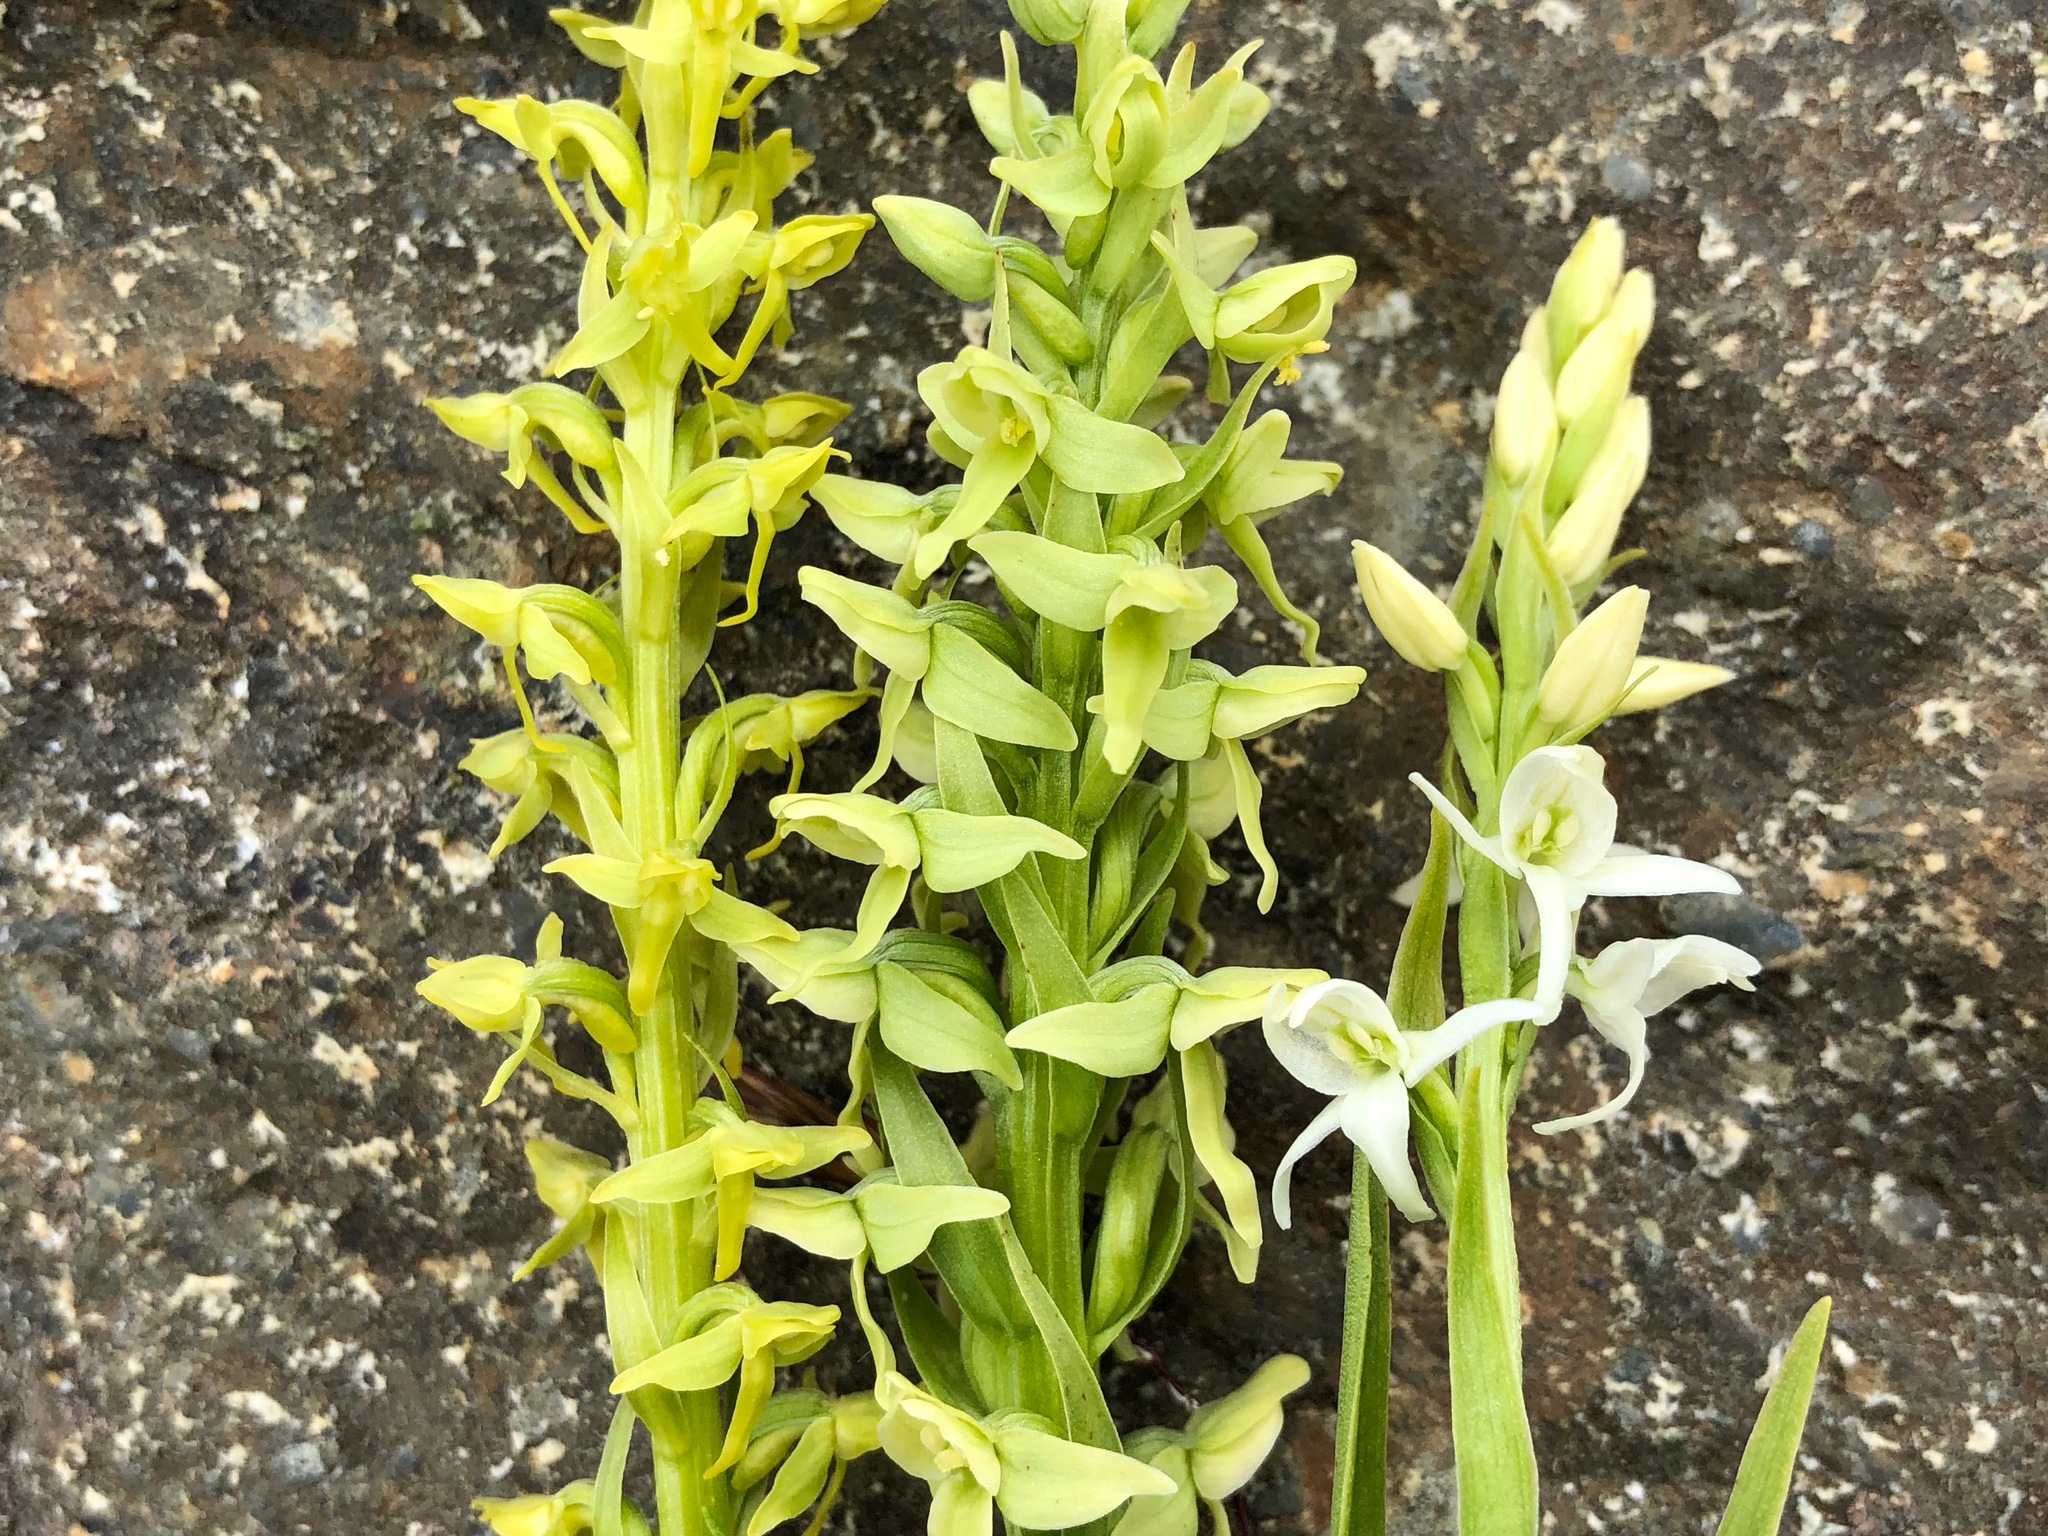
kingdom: Plantae
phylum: Tracheophyta
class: Liliopsida
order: Asparagales
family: Orchidaceae
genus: Platanthera
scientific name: Platanthera stricta
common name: Slender bog orchid
